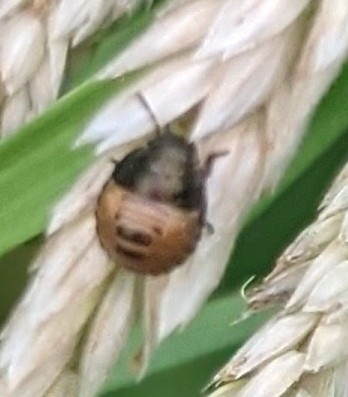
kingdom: Animalia
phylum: Arthropoda
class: Insecta
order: Hemiptera
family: Scutelleridae
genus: Eurygaster
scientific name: Eurygaster testudinaria
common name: Tortoise bug
